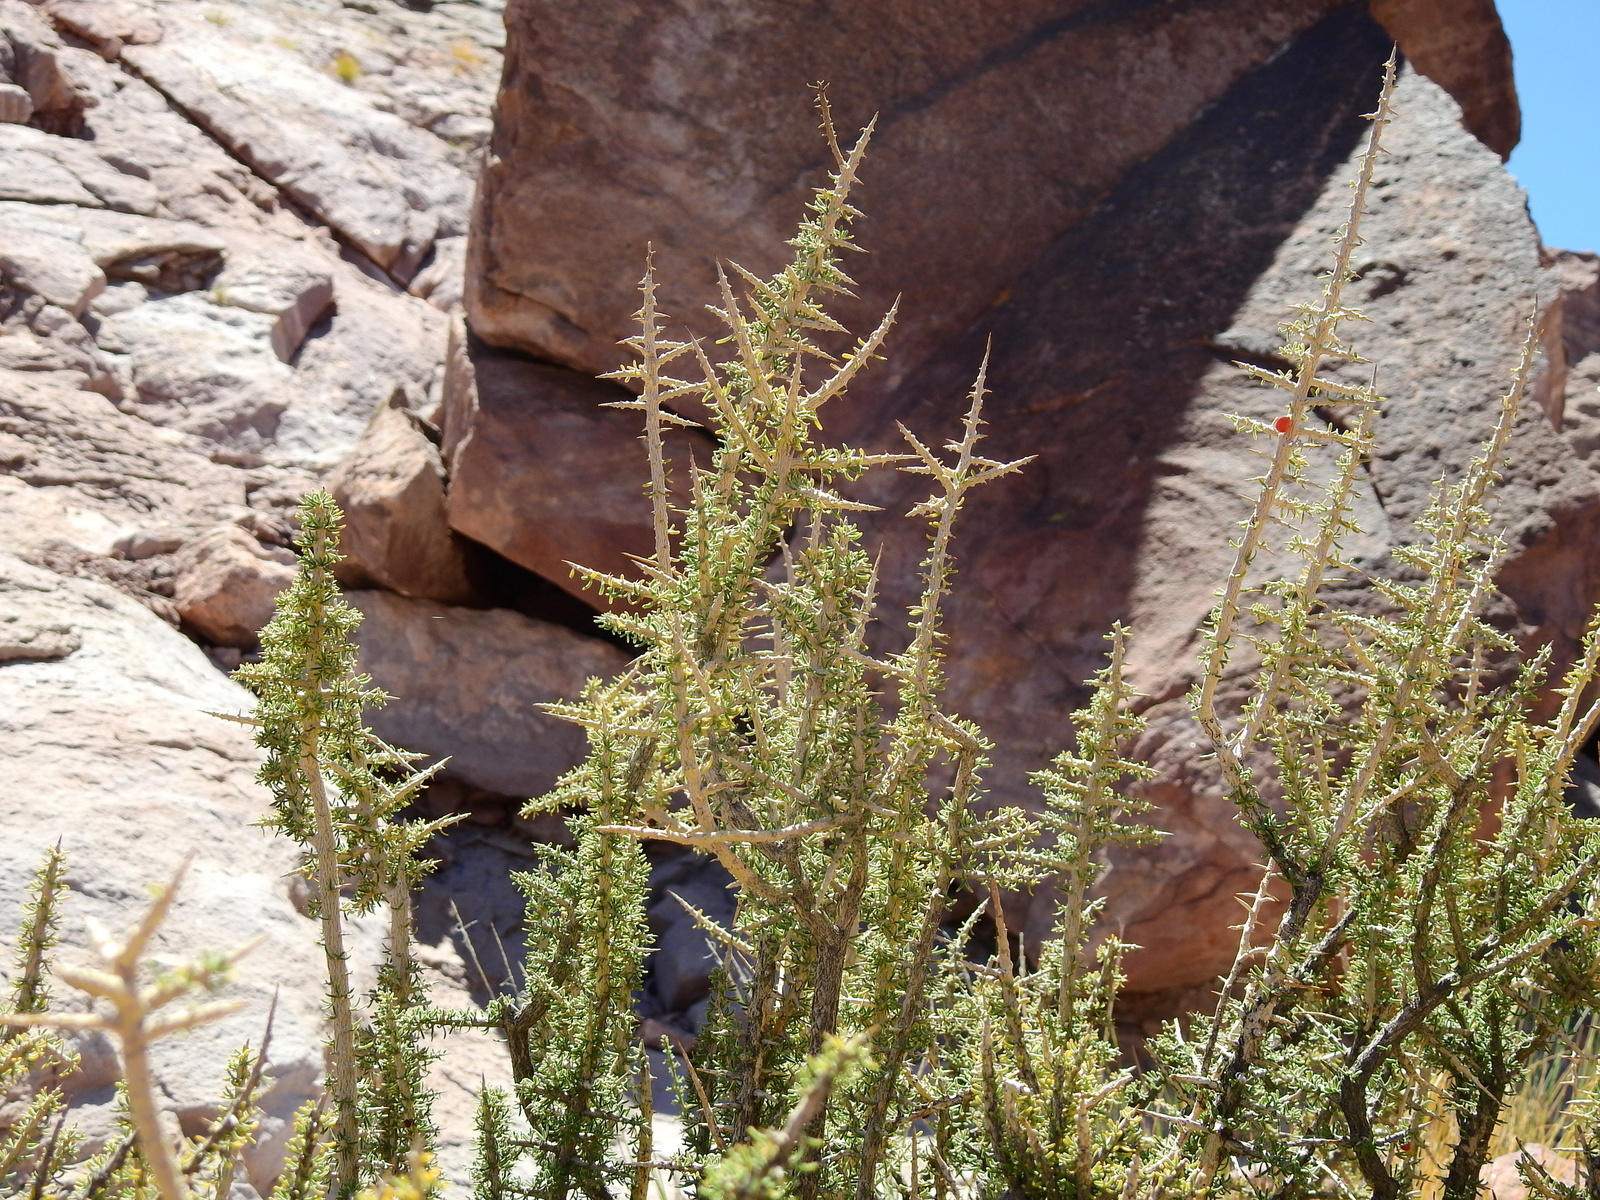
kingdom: Plantae
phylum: Tracheophyta
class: Magnoliopsida
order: Solanales
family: Solanaceae
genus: Lycium
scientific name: Lycium chanar
